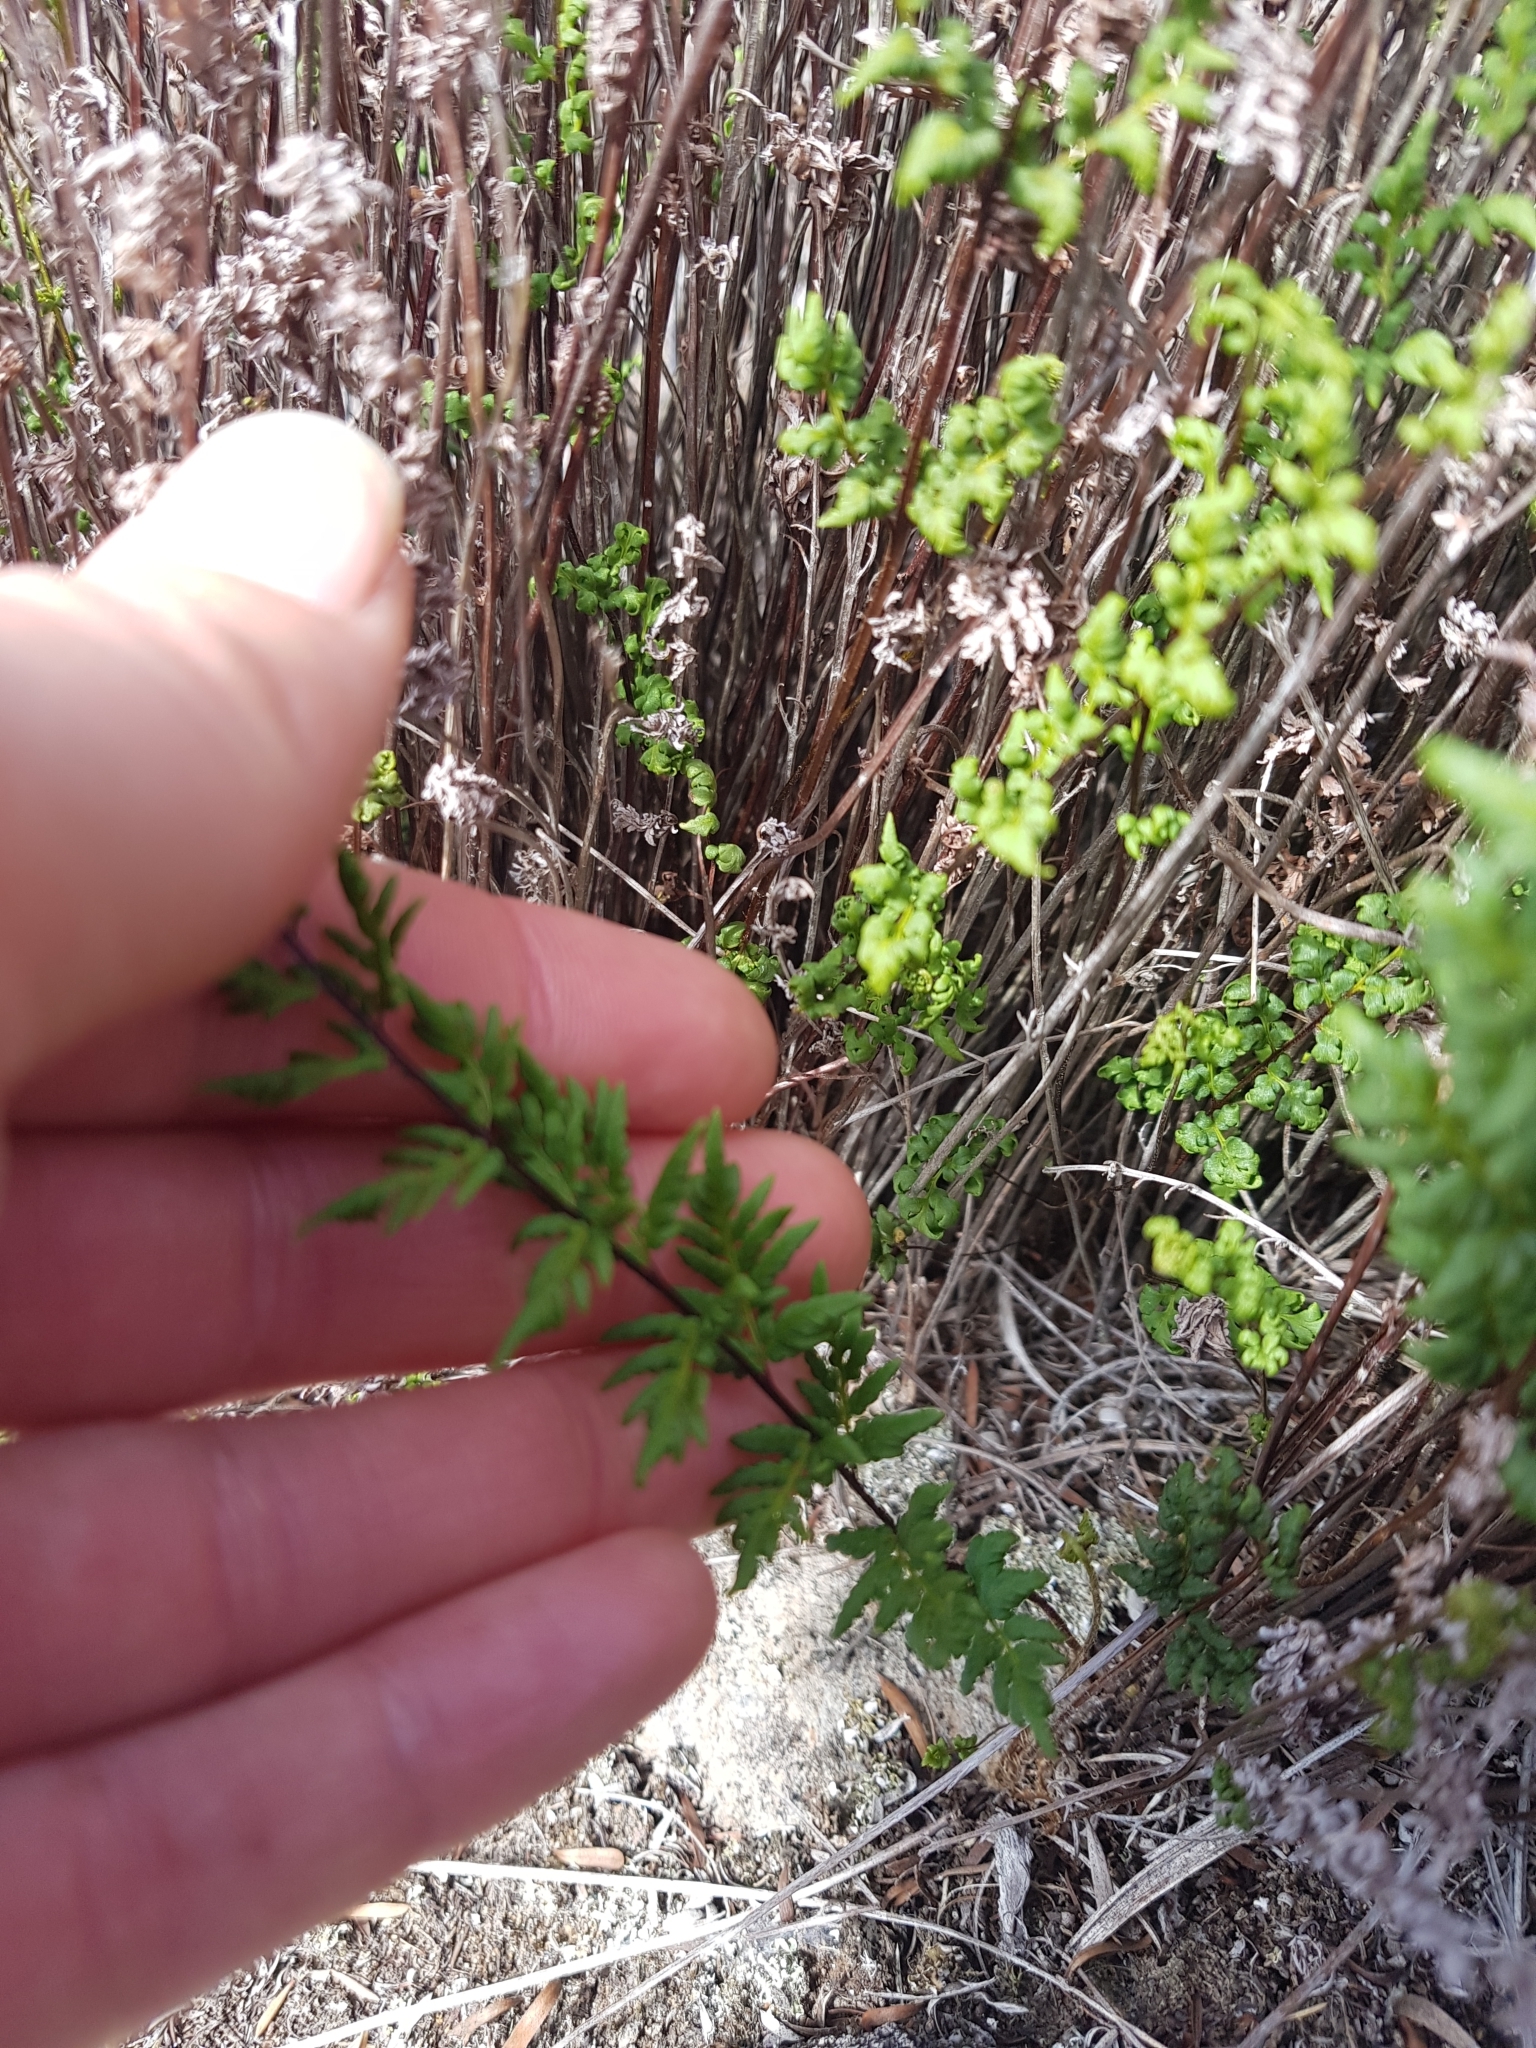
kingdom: Plantae
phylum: Tracheophyta
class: Polypodiopsida
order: Polypodiales
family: Pteridaceae
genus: Cheilanthes
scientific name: Cheilanthes sieberi
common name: Mulga fern
